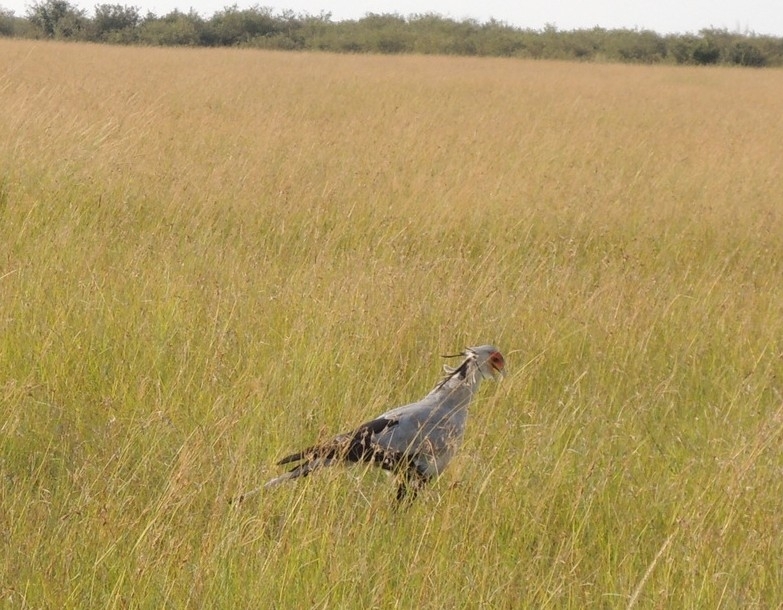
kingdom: Animalia
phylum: Chordata
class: Aves
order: Accipitriformes
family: Sagittariidae
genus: Sagittarius
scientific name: Sagittarius serpentarius
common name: Secretarybird
